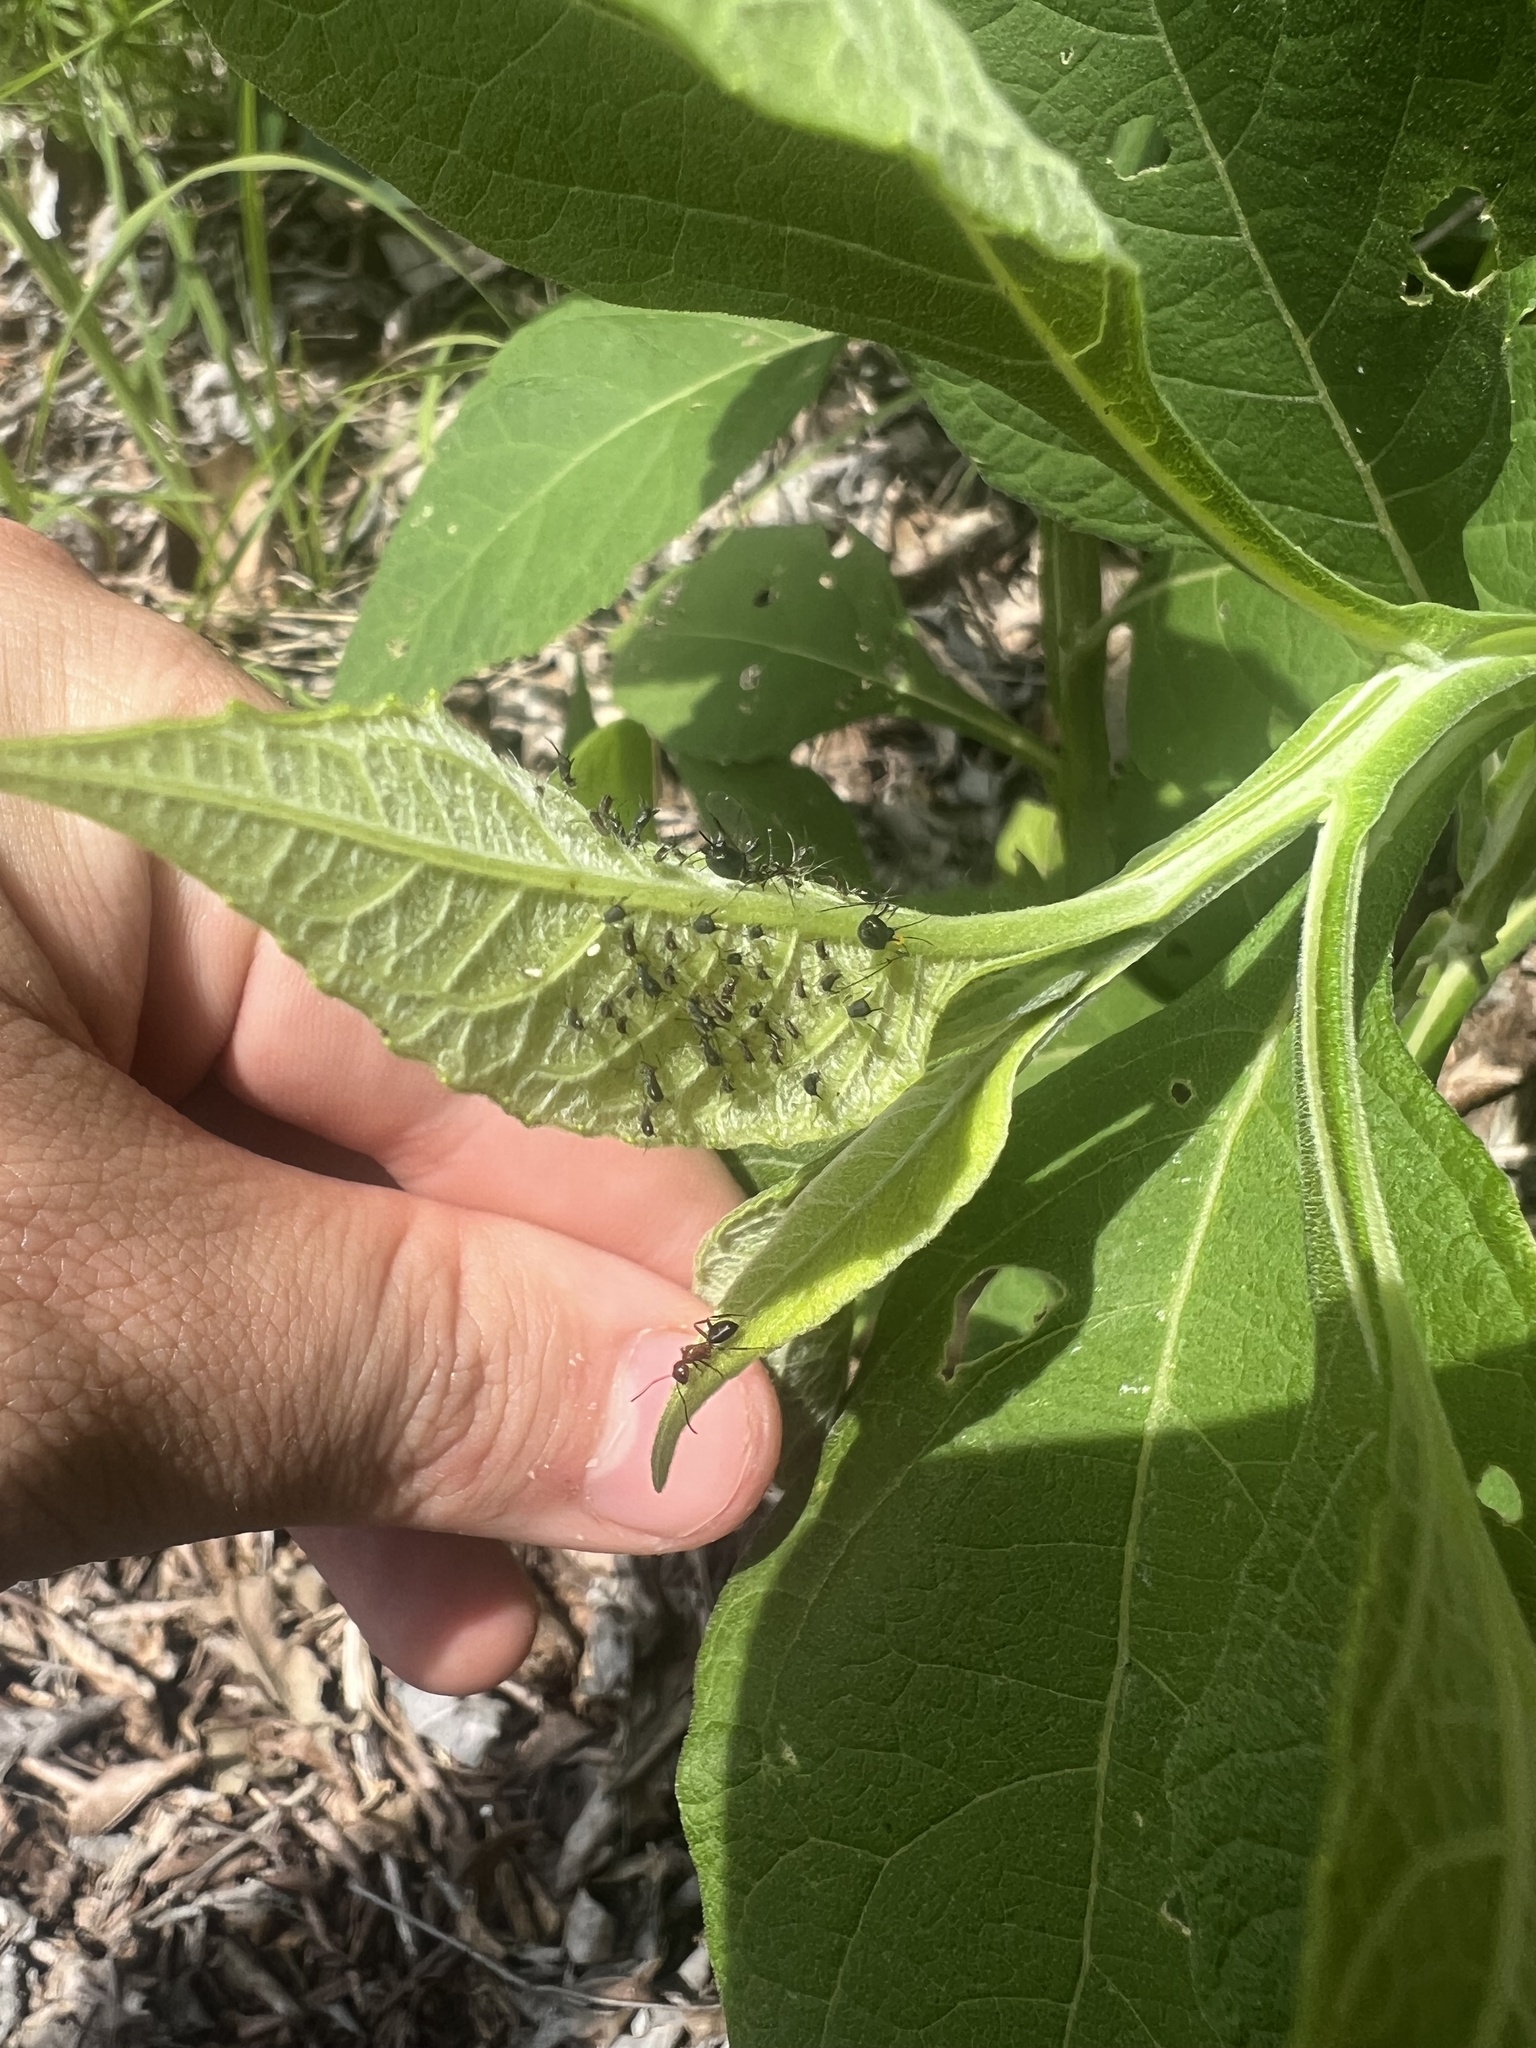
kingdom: Plantae
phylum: Tracheophyta
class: Magnoliopsida
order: Asterales
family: Asteraceae
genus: Verbesina
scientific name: Verbesina virginica
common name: Frostweed
